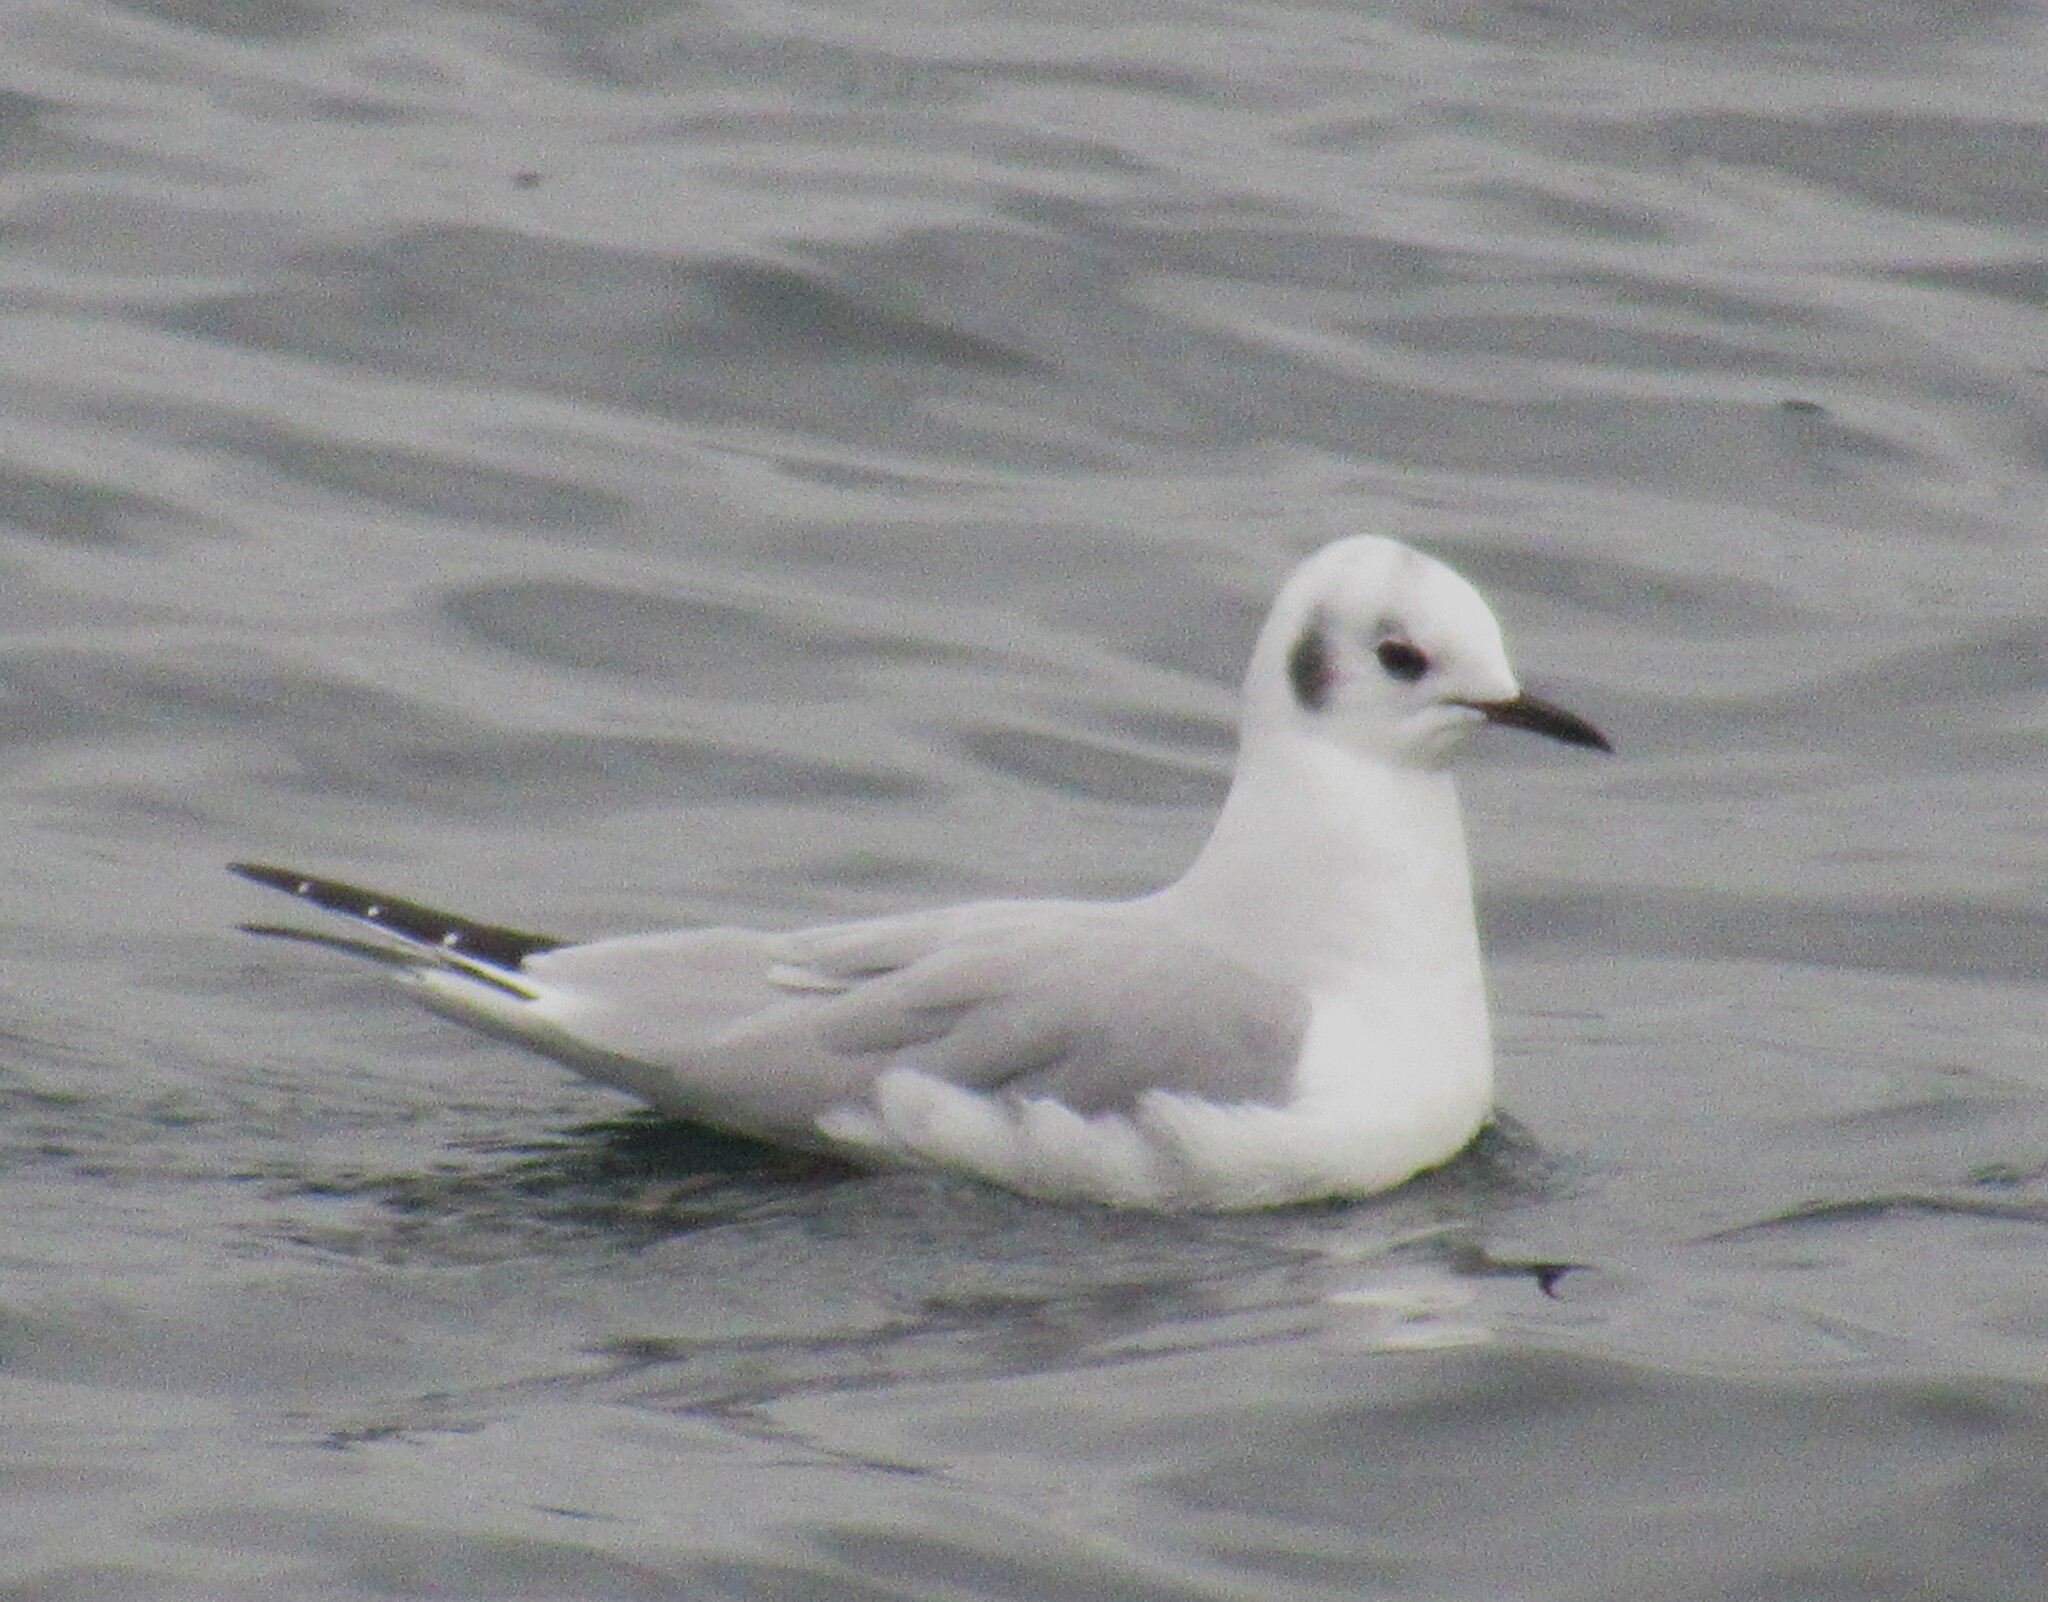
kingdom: Animalia
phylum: Chordata
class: Aves
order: Charadriiformes
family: Laridae
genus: Chroicocephalus
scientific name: Chroicocephalus philadelphia
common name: Bonaparte's gull
